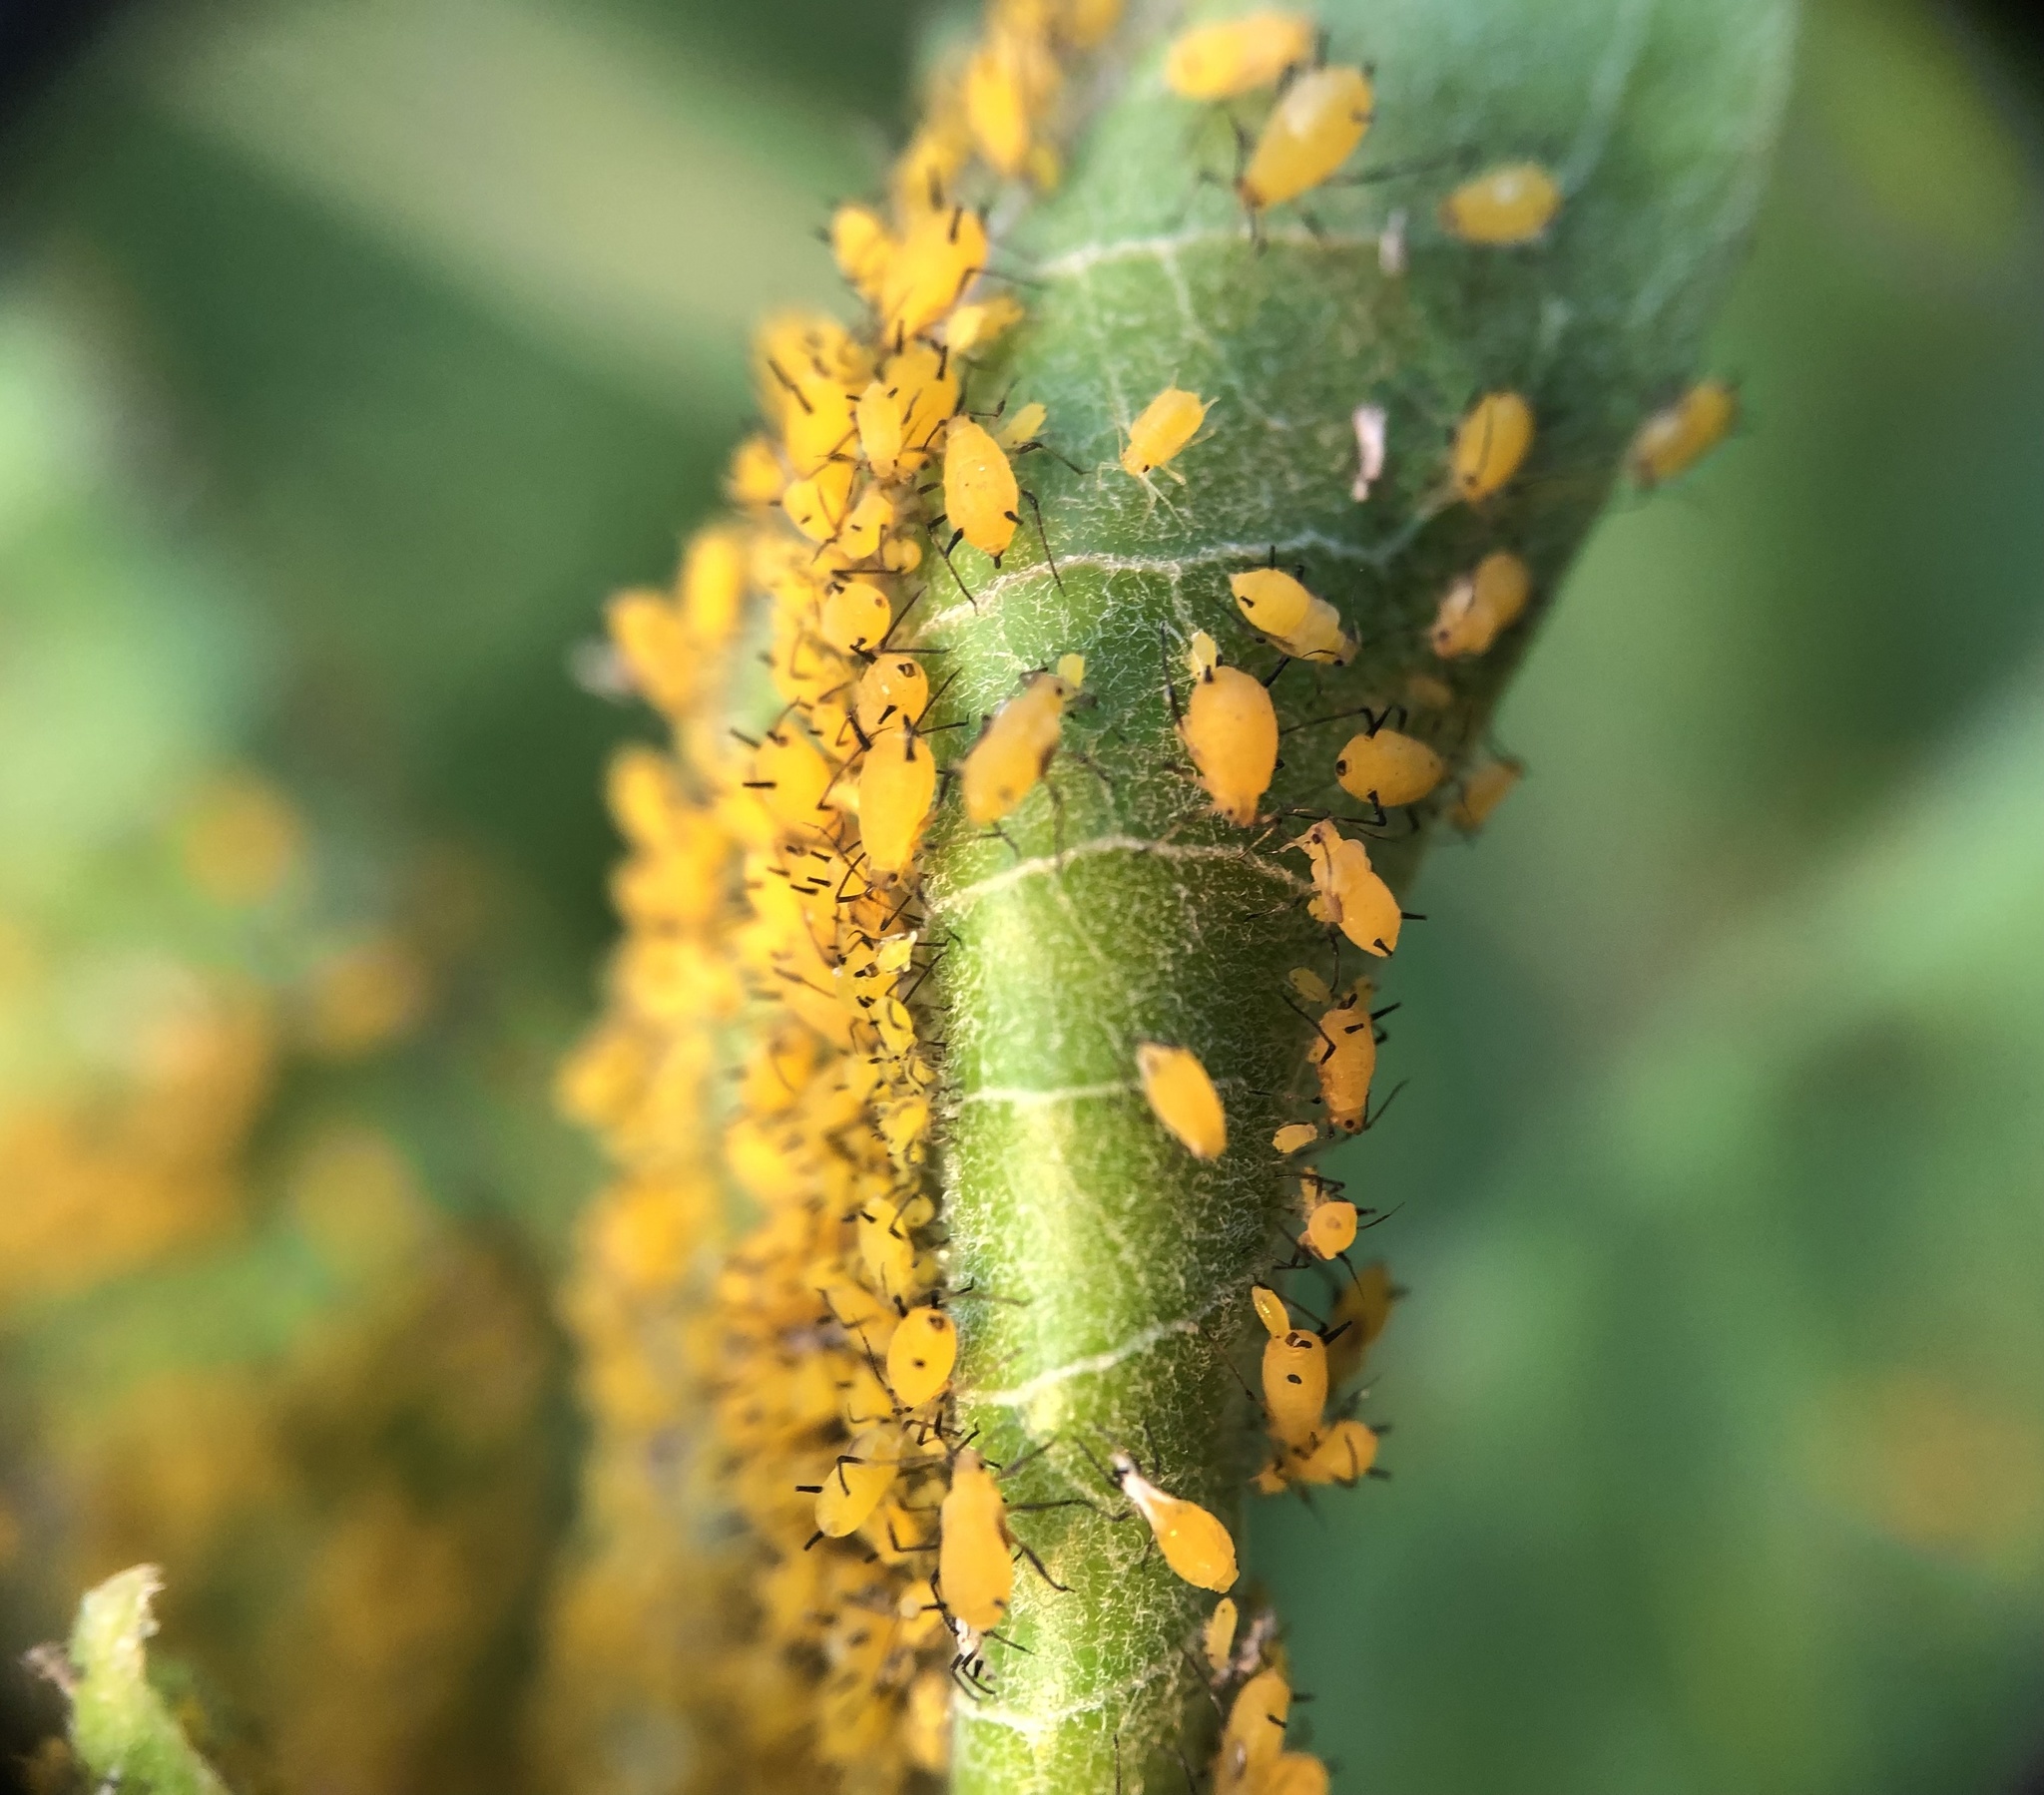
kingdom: Animalia
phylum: Arthropoda
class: Insecta
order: Hemiptera
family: Aphididae
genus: Aphis
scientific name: Aphis nerii
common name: Oleander aphid
